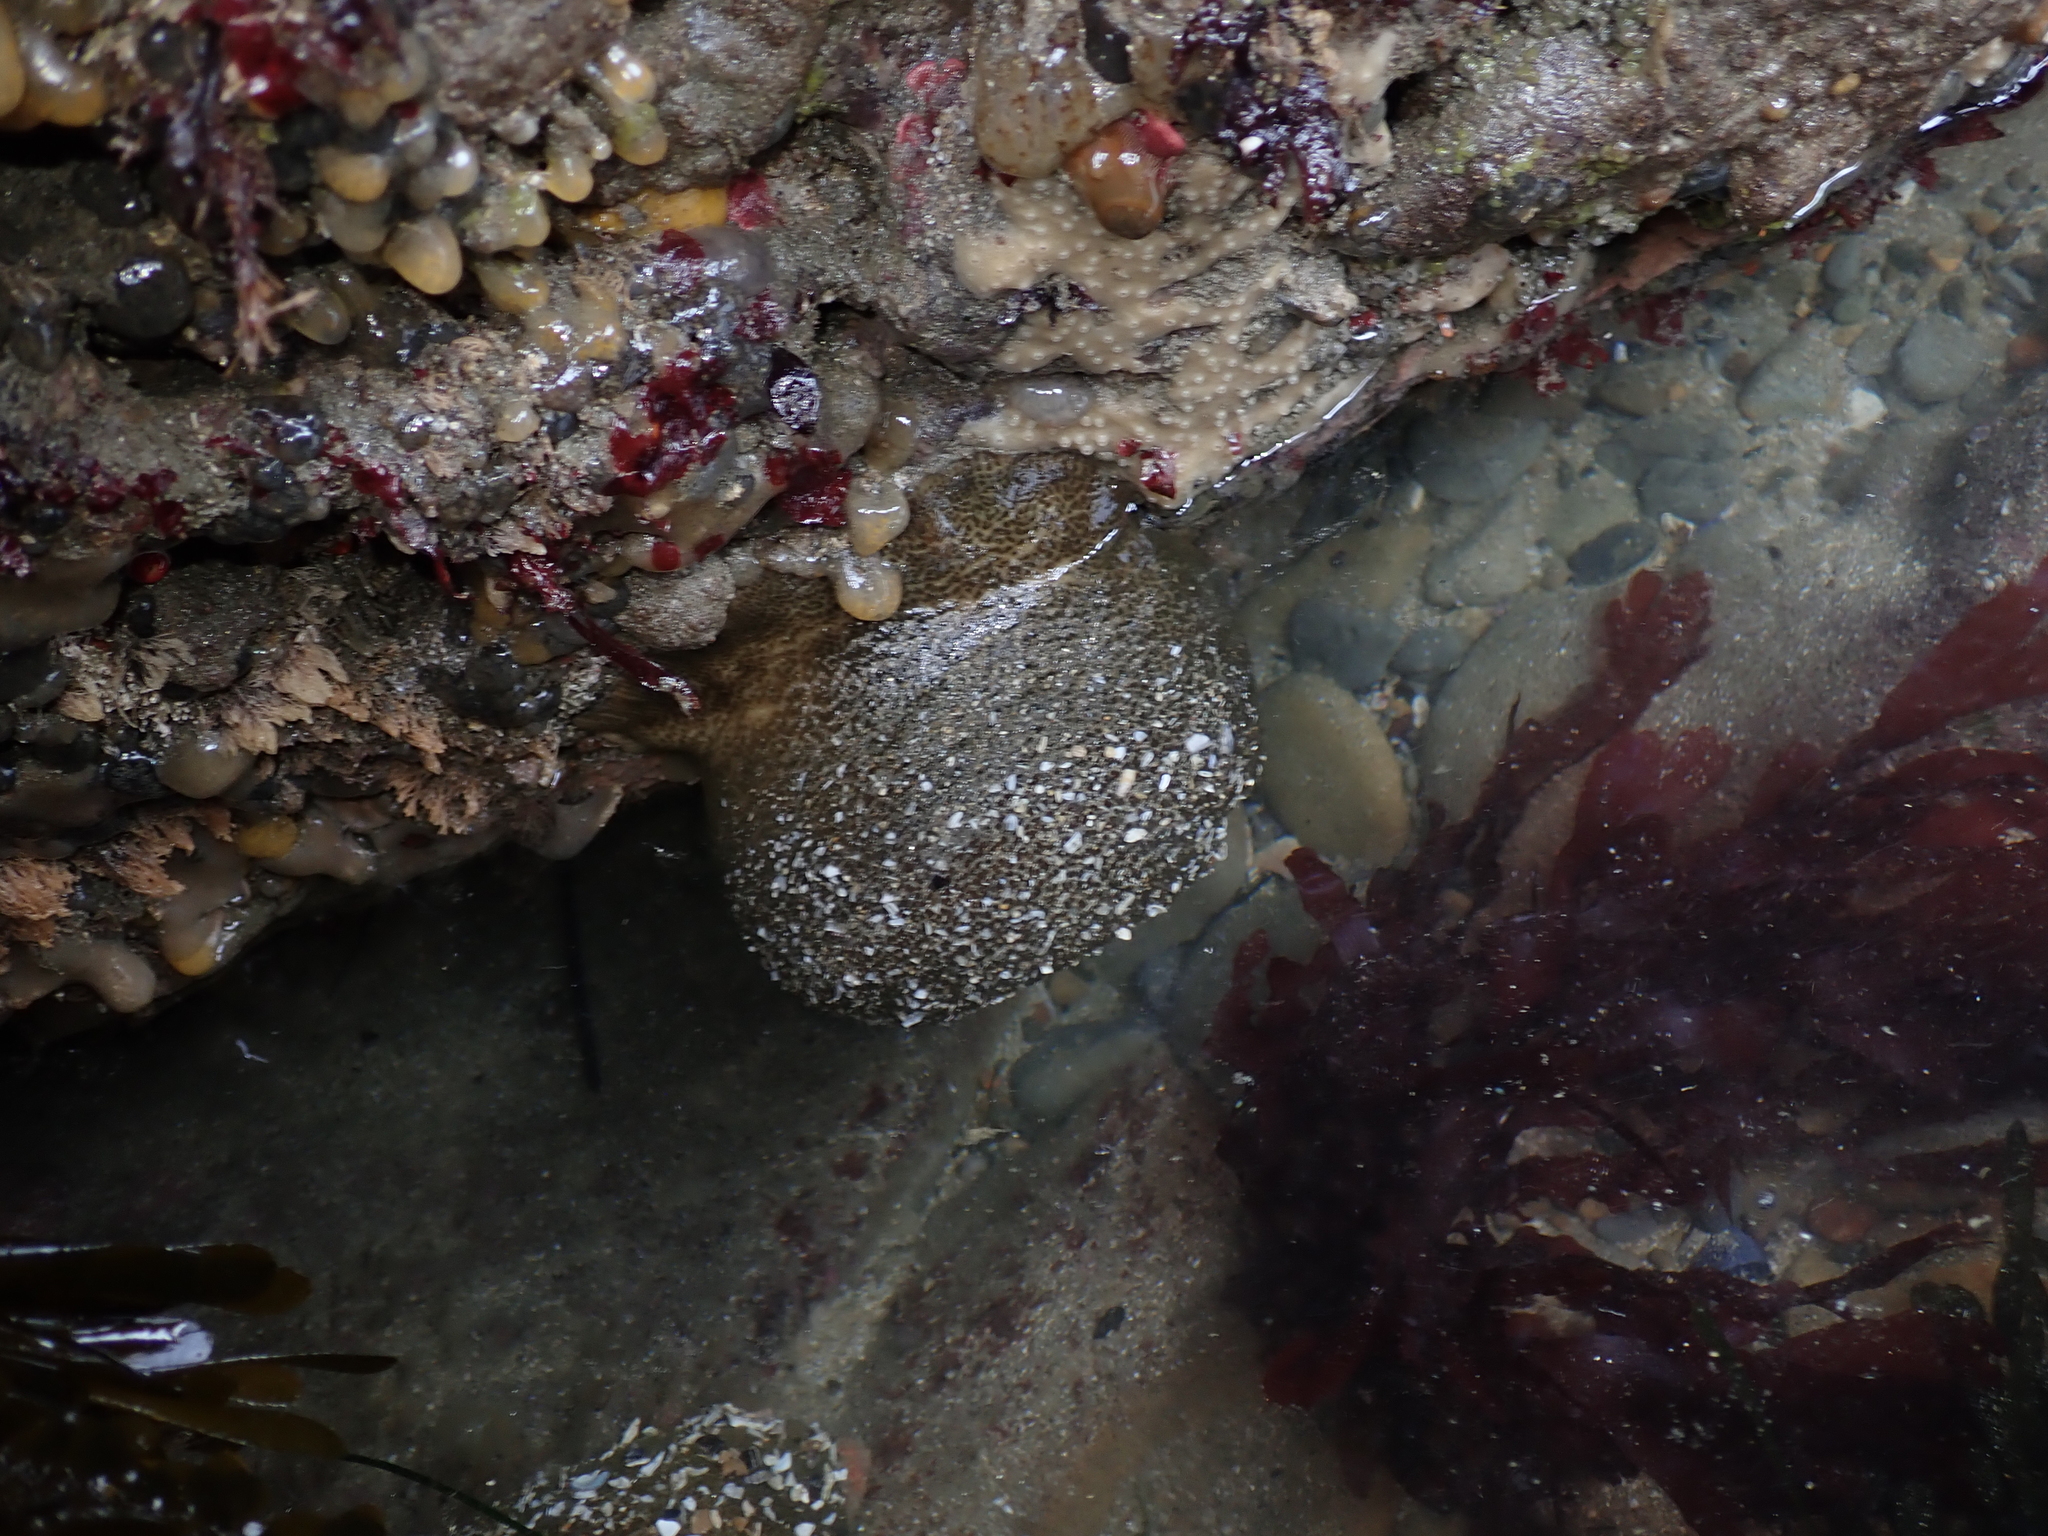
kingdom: Animalia
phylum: Cnidaria
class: Anthozoa
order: Actiniaria
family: Actiniidae
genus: Anthopleura
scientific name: Anthopleura xanthogrammica
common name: Giant green anemone
